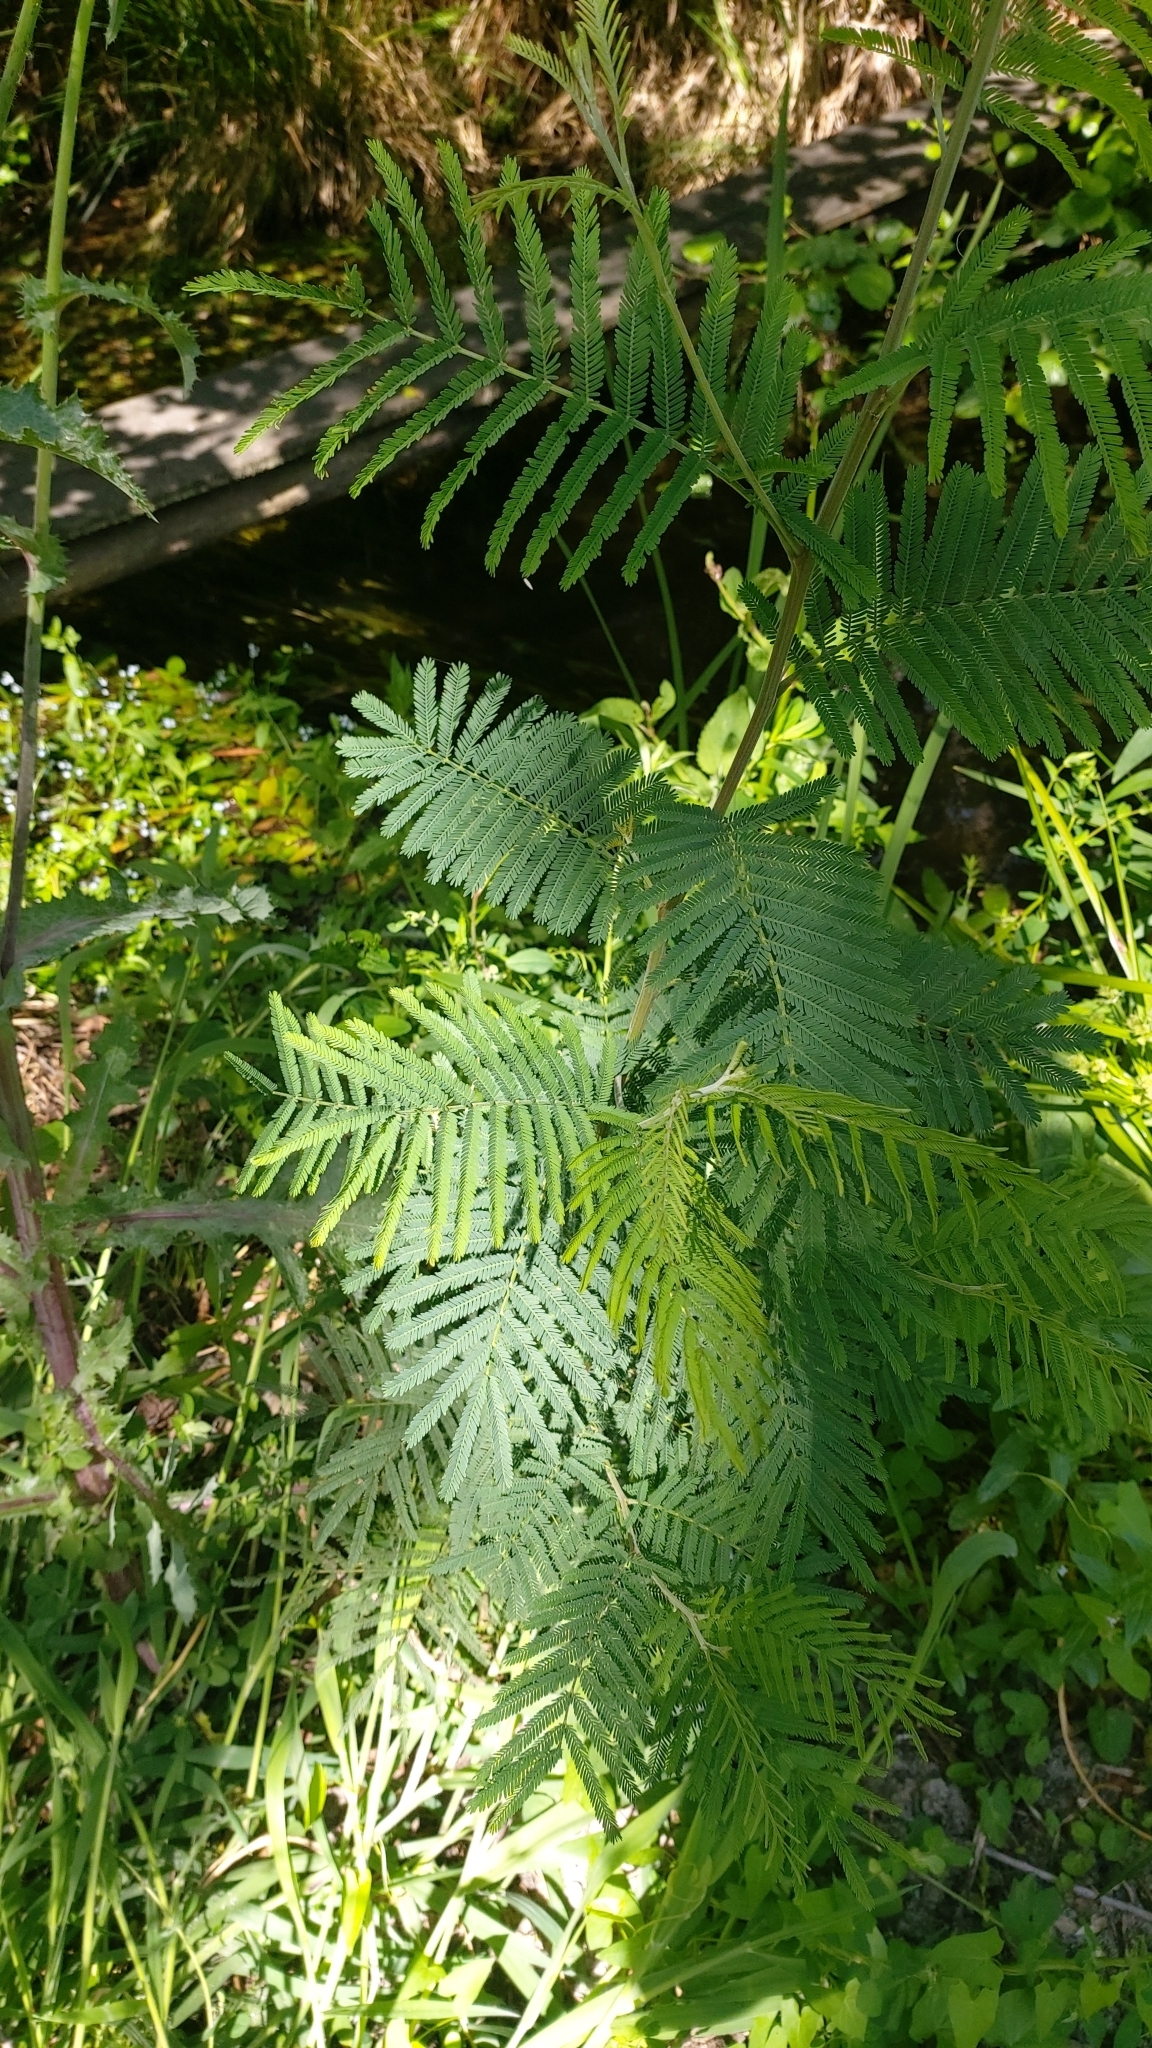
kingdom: Plantae
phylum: Tracheophyta
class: Magnoliopsida
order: Fabales
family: Fabaceae
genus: Acacia
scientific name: Acacia dealbata
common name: Silver wattle
